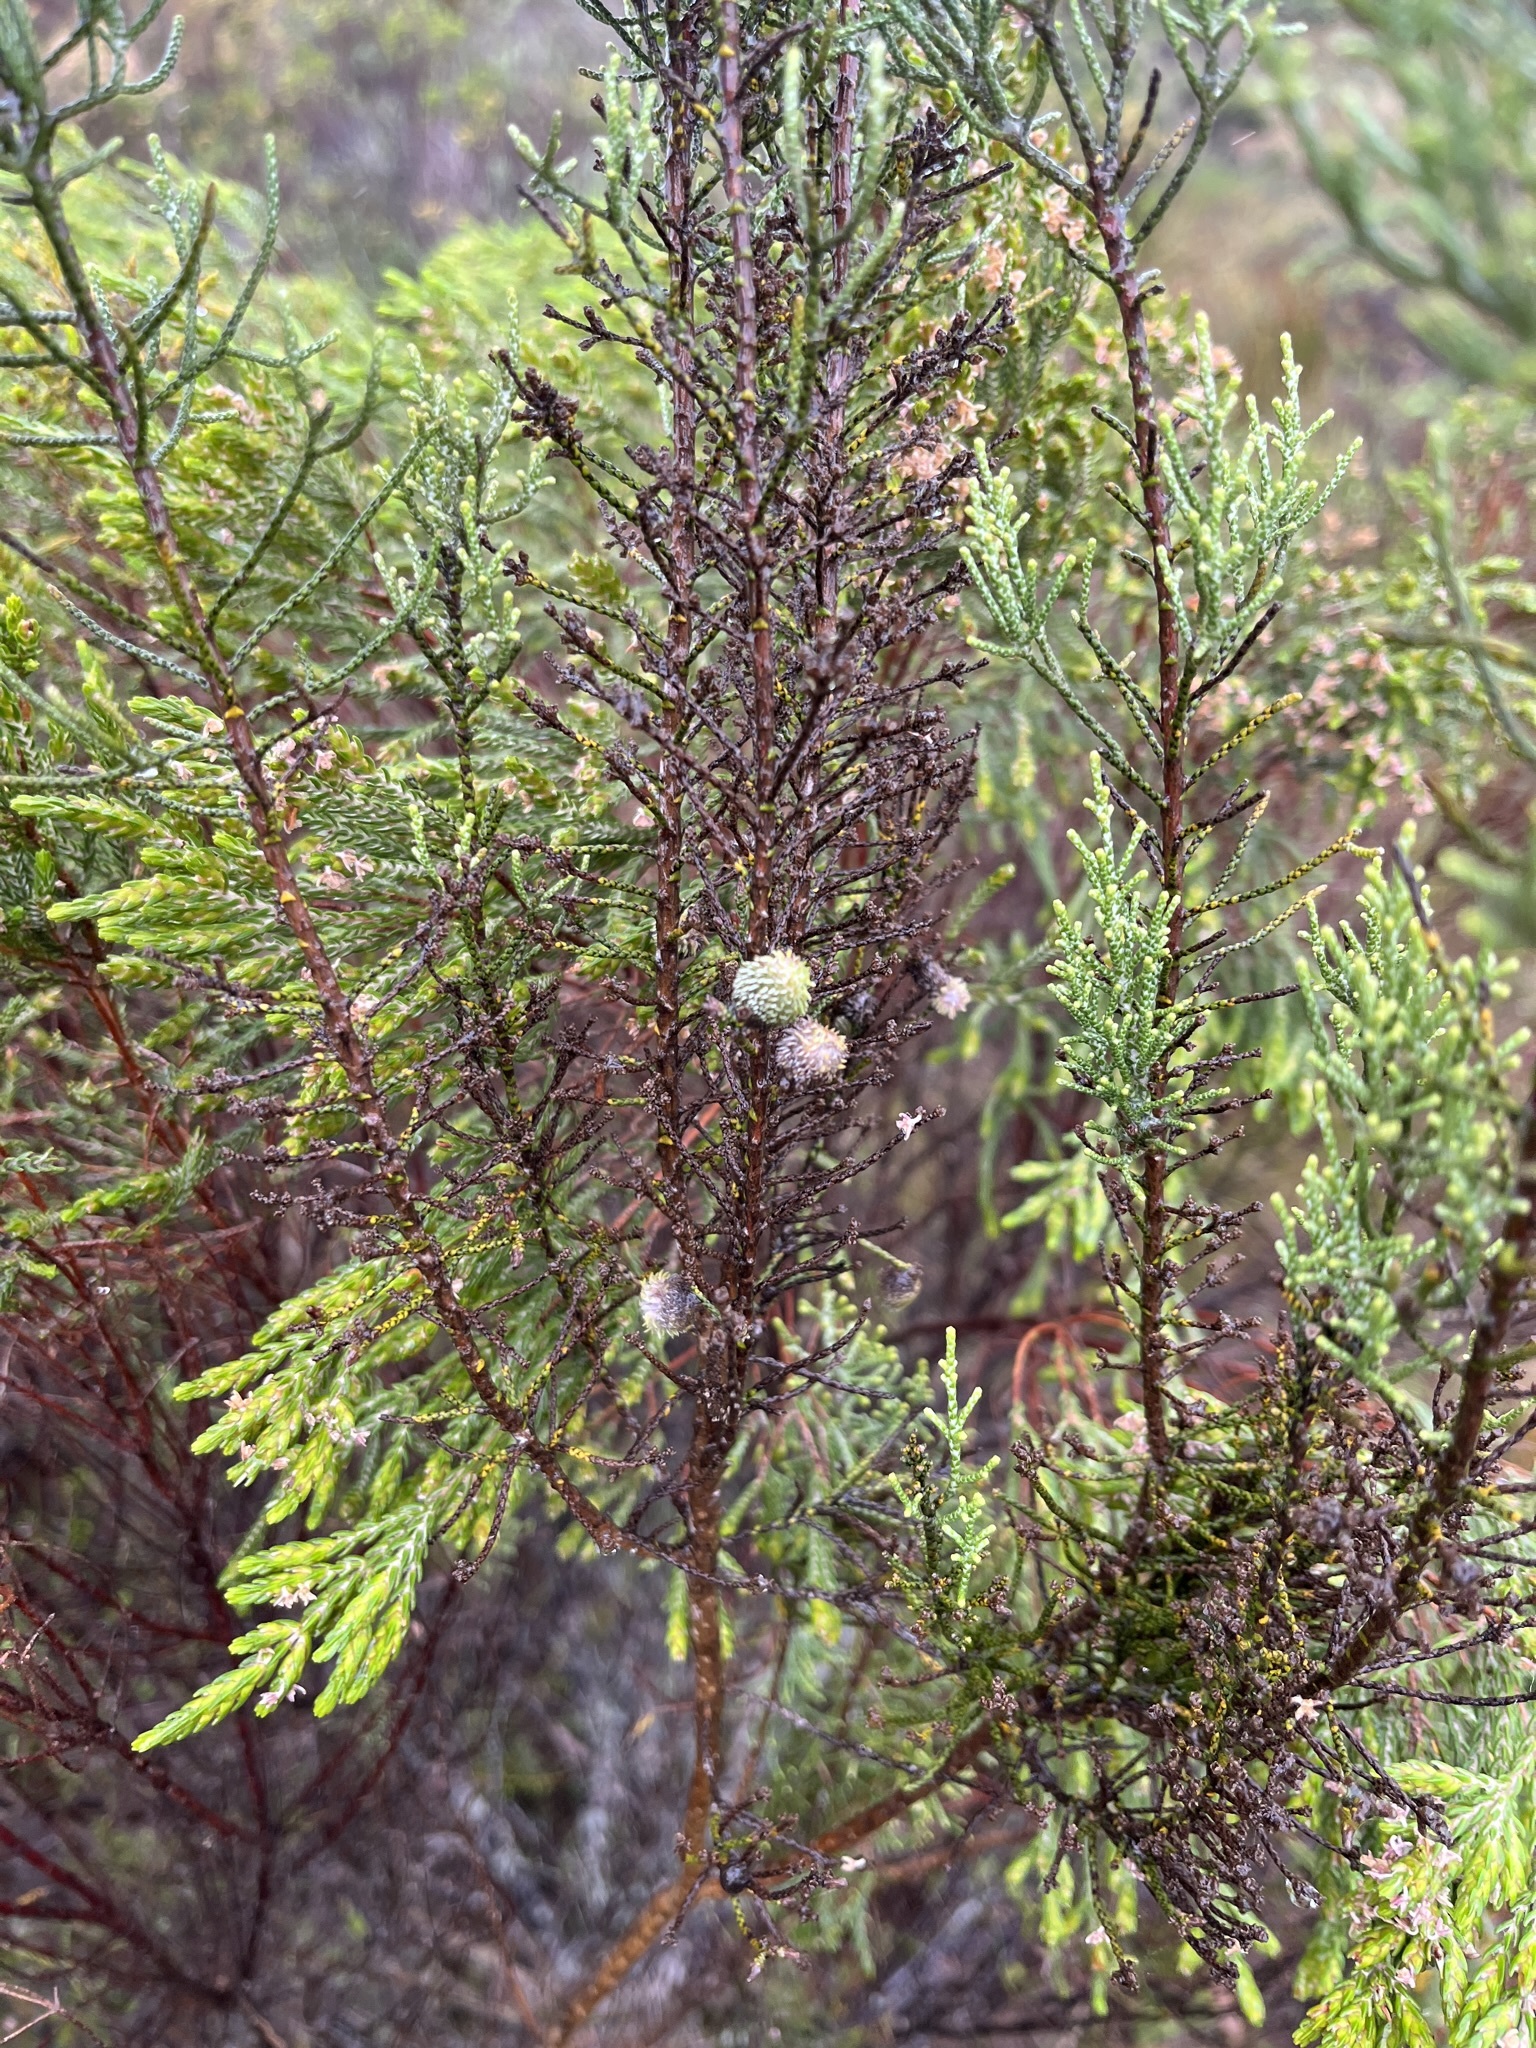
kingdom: Plantae
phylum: Tracheophyta
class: Magnoliopsida
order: Asterales
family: Asteraceae
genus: Dicerothamnus
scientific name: Dicerothamnus rhinocerotis
